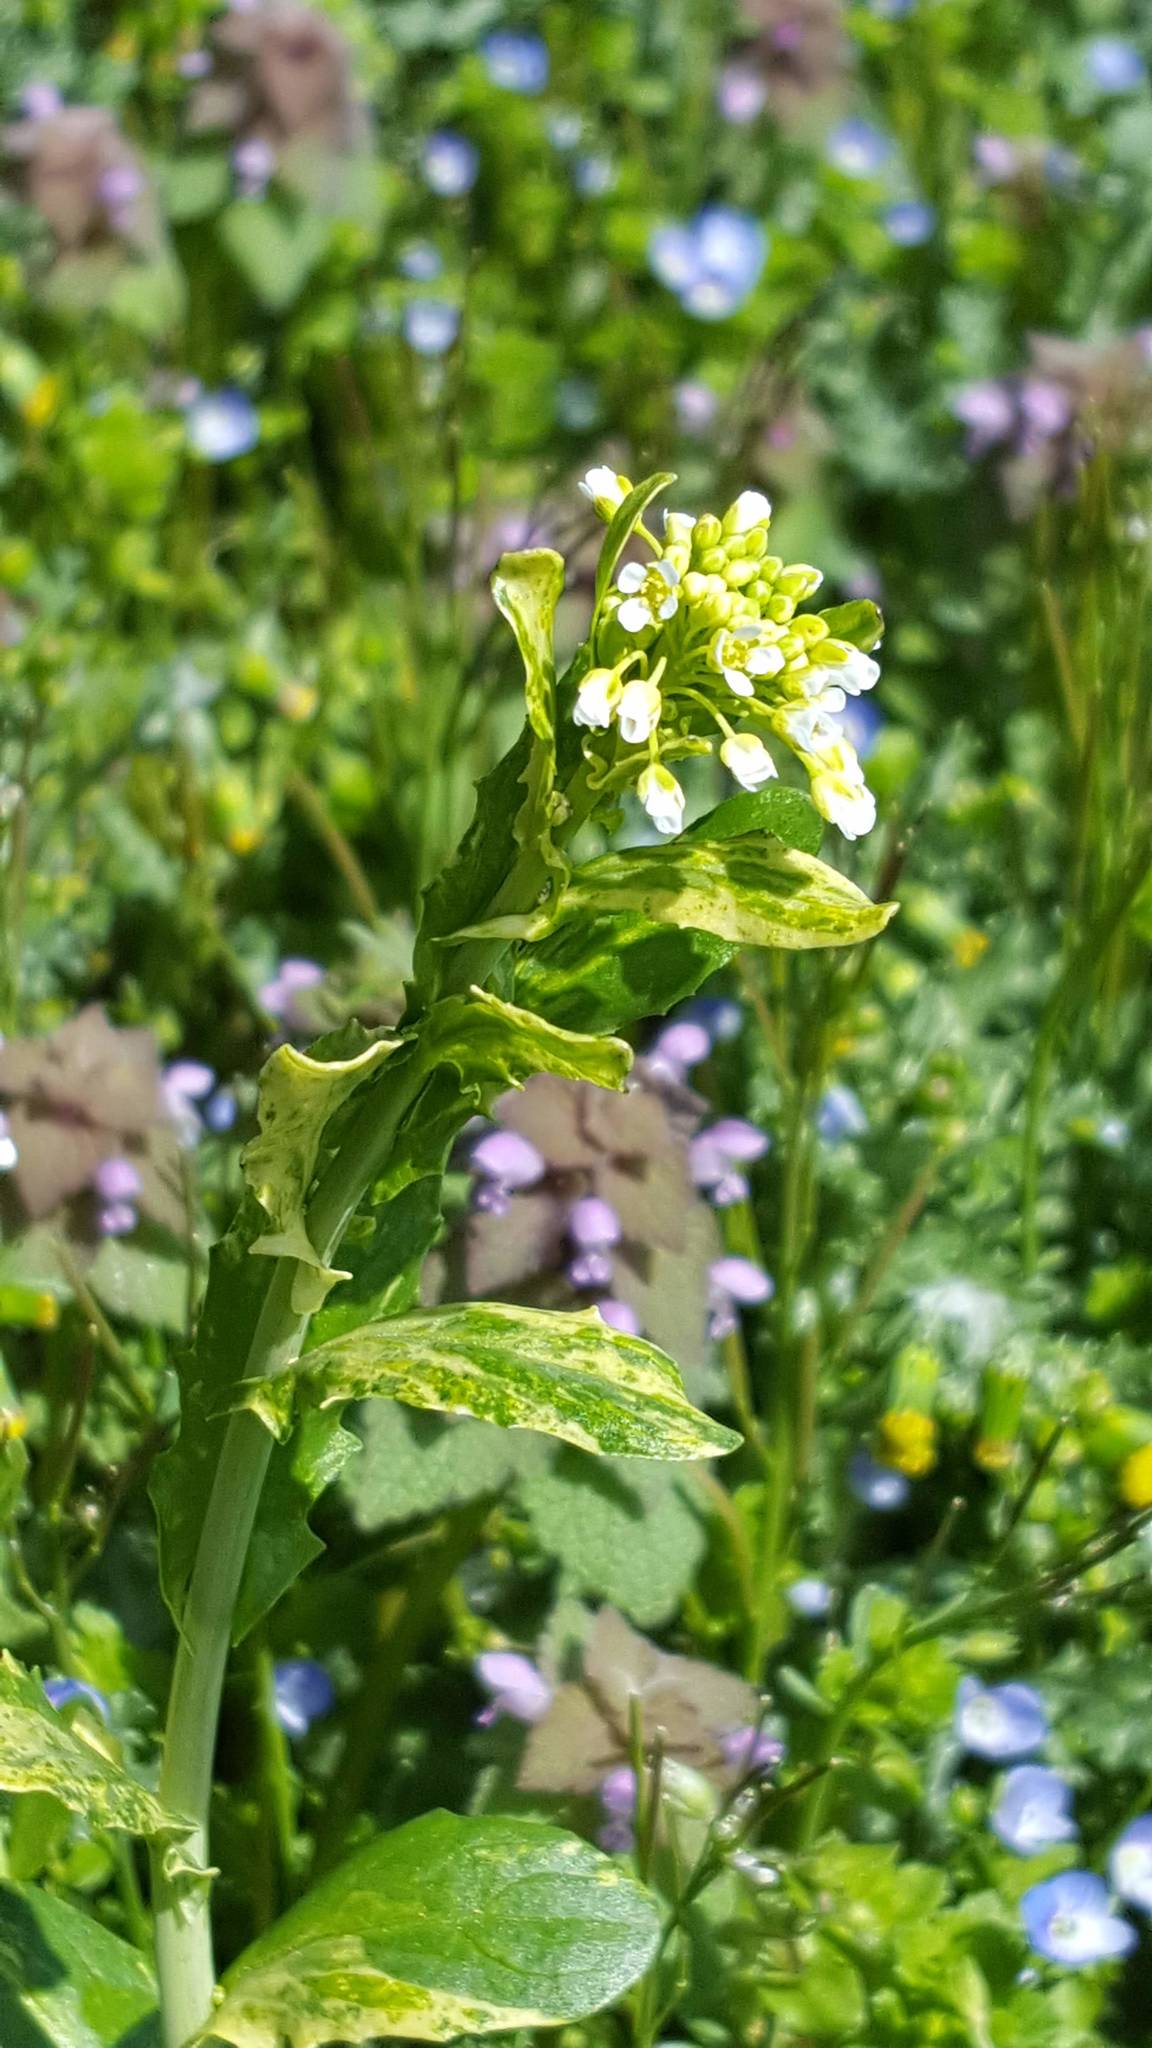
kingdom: Plantae
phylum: Tracheophyta
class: Magnoliopsida
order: Brassicales
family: Brassicaceae
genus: Mummenhoffia
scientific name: Mummenhoffia alliacea
